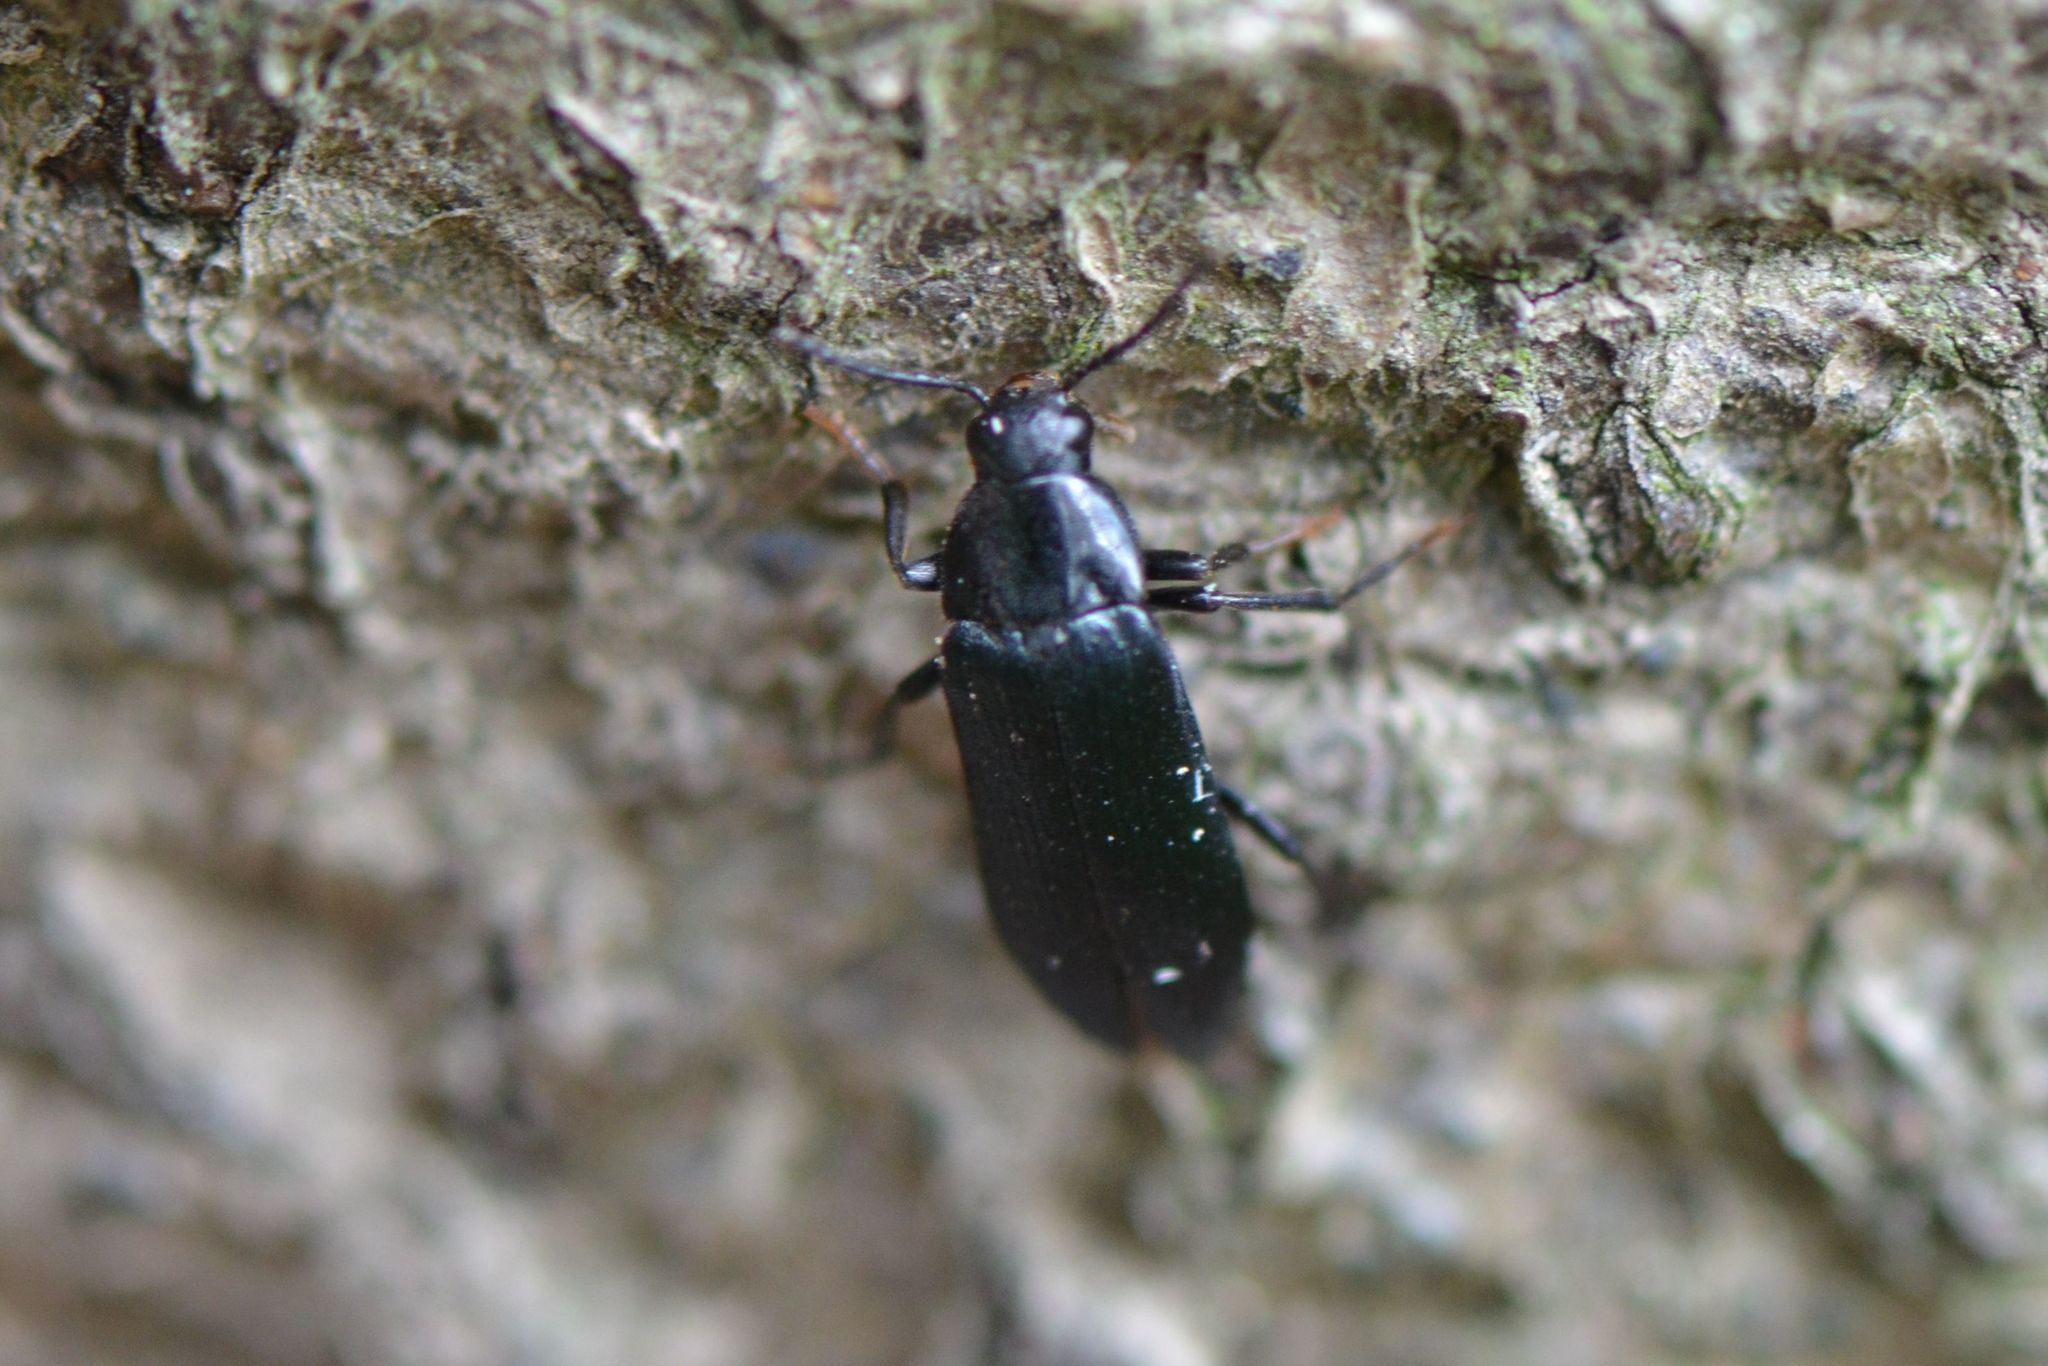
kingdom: Animalia
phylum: Arthropoda
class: Insecta
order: Coleoptera
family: Melandryidae
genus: Melandrya
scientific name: Melandrya caraboides
